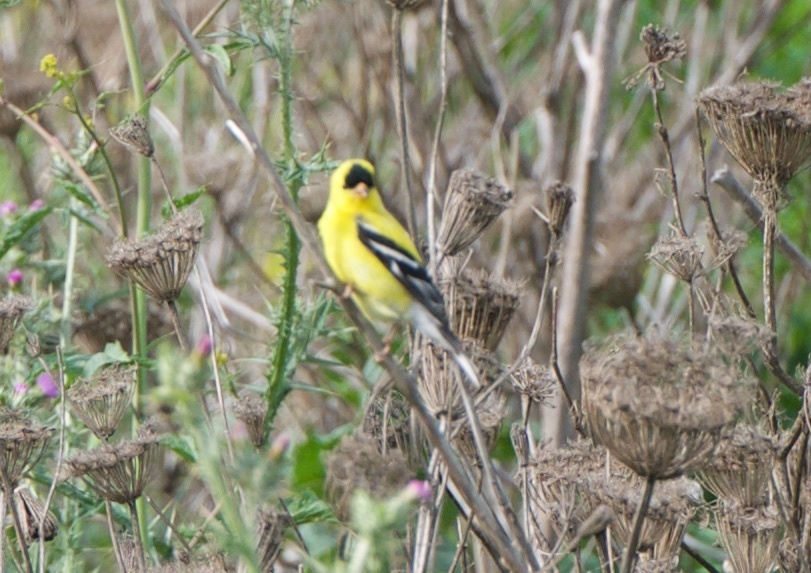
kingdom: Animalia
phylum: Chordata
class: Aves
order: Passeriformes
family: Fringillidae
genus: Spinus
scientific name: Spinus tristis
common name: American goldfinch
